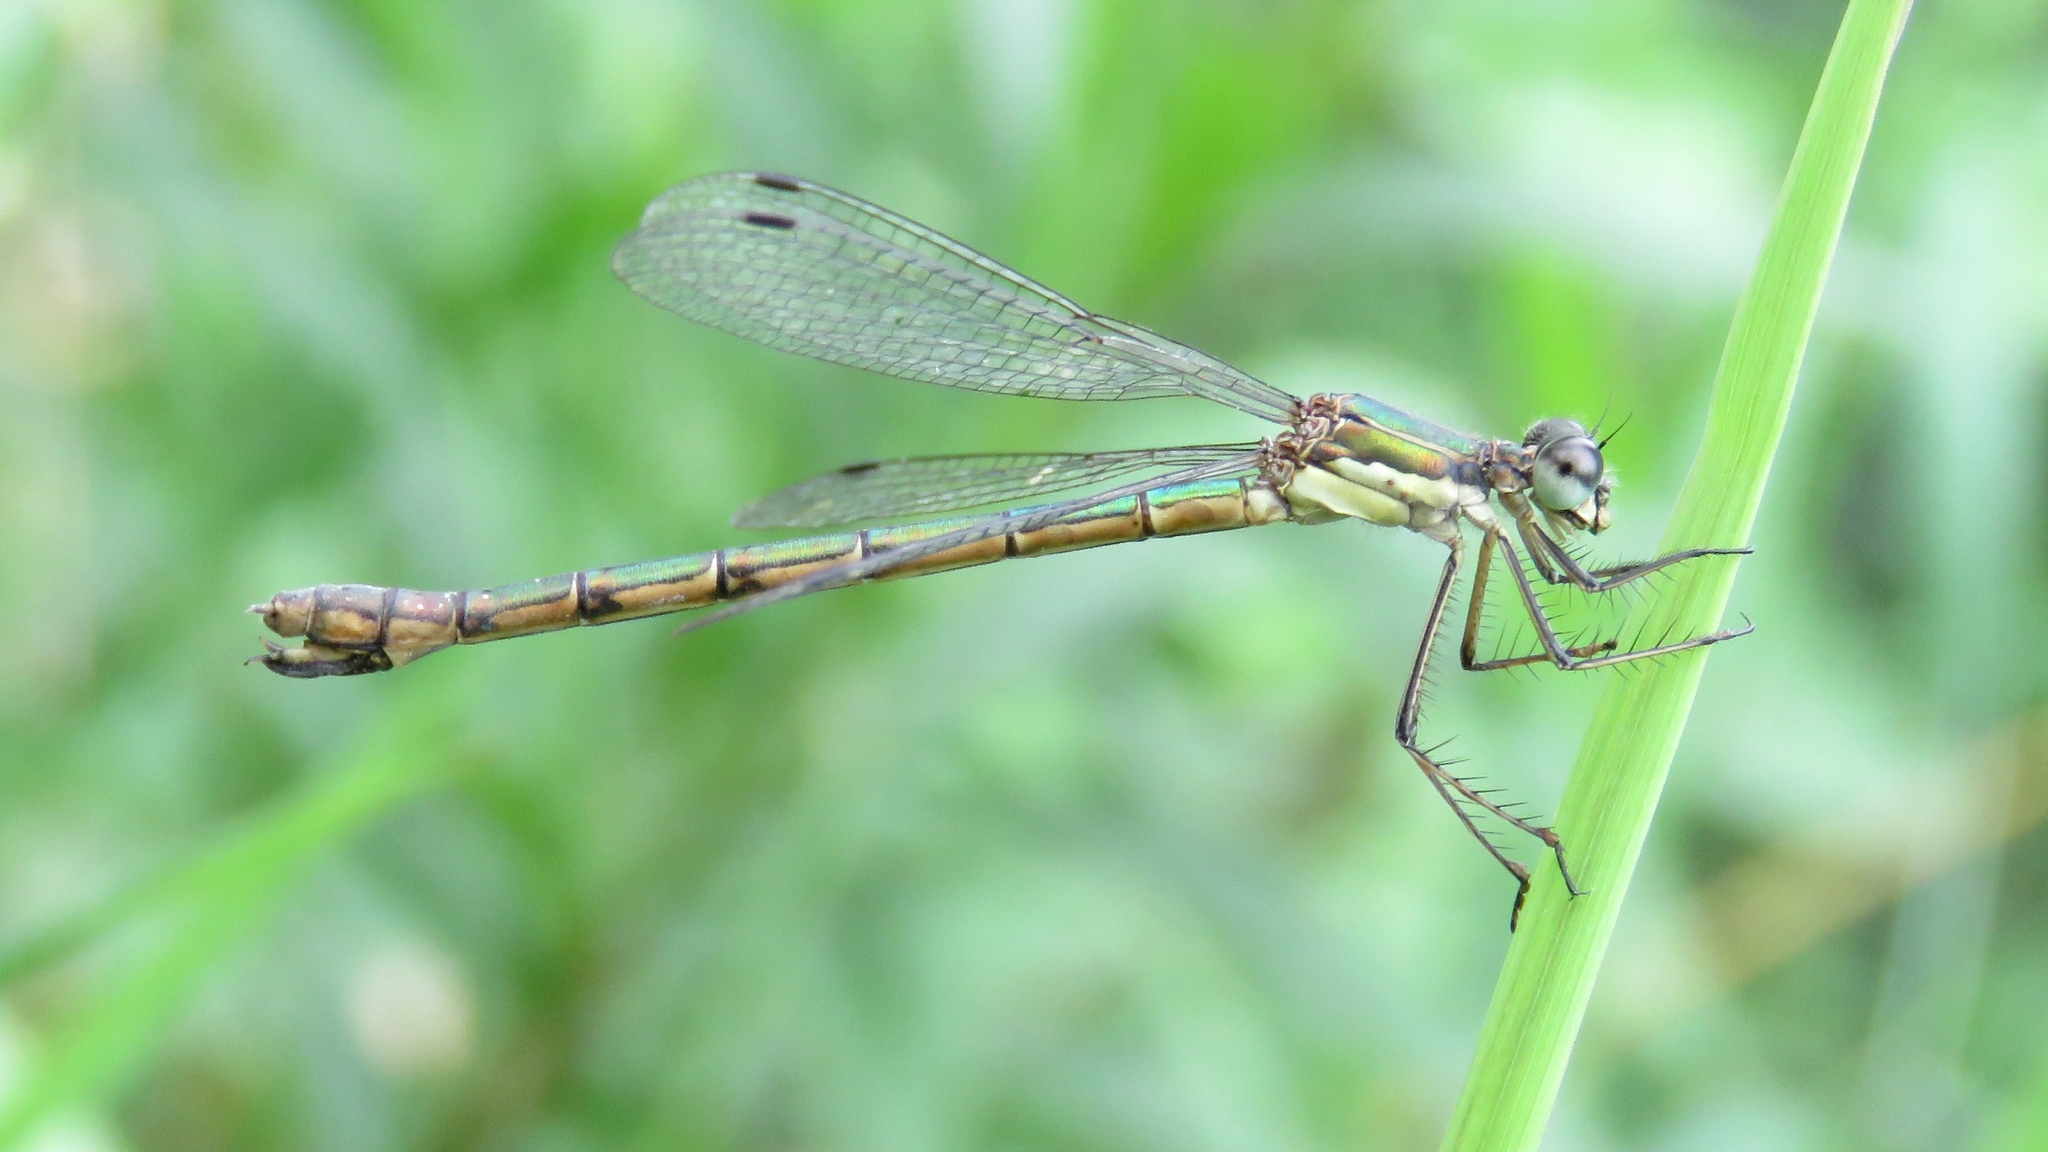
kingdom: Animalia
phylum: Arthropoda
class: Insecta
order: Odonata
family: Lestidae
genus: Lestes
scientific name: Lestes dryas
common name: Scarce emerald damselfly
